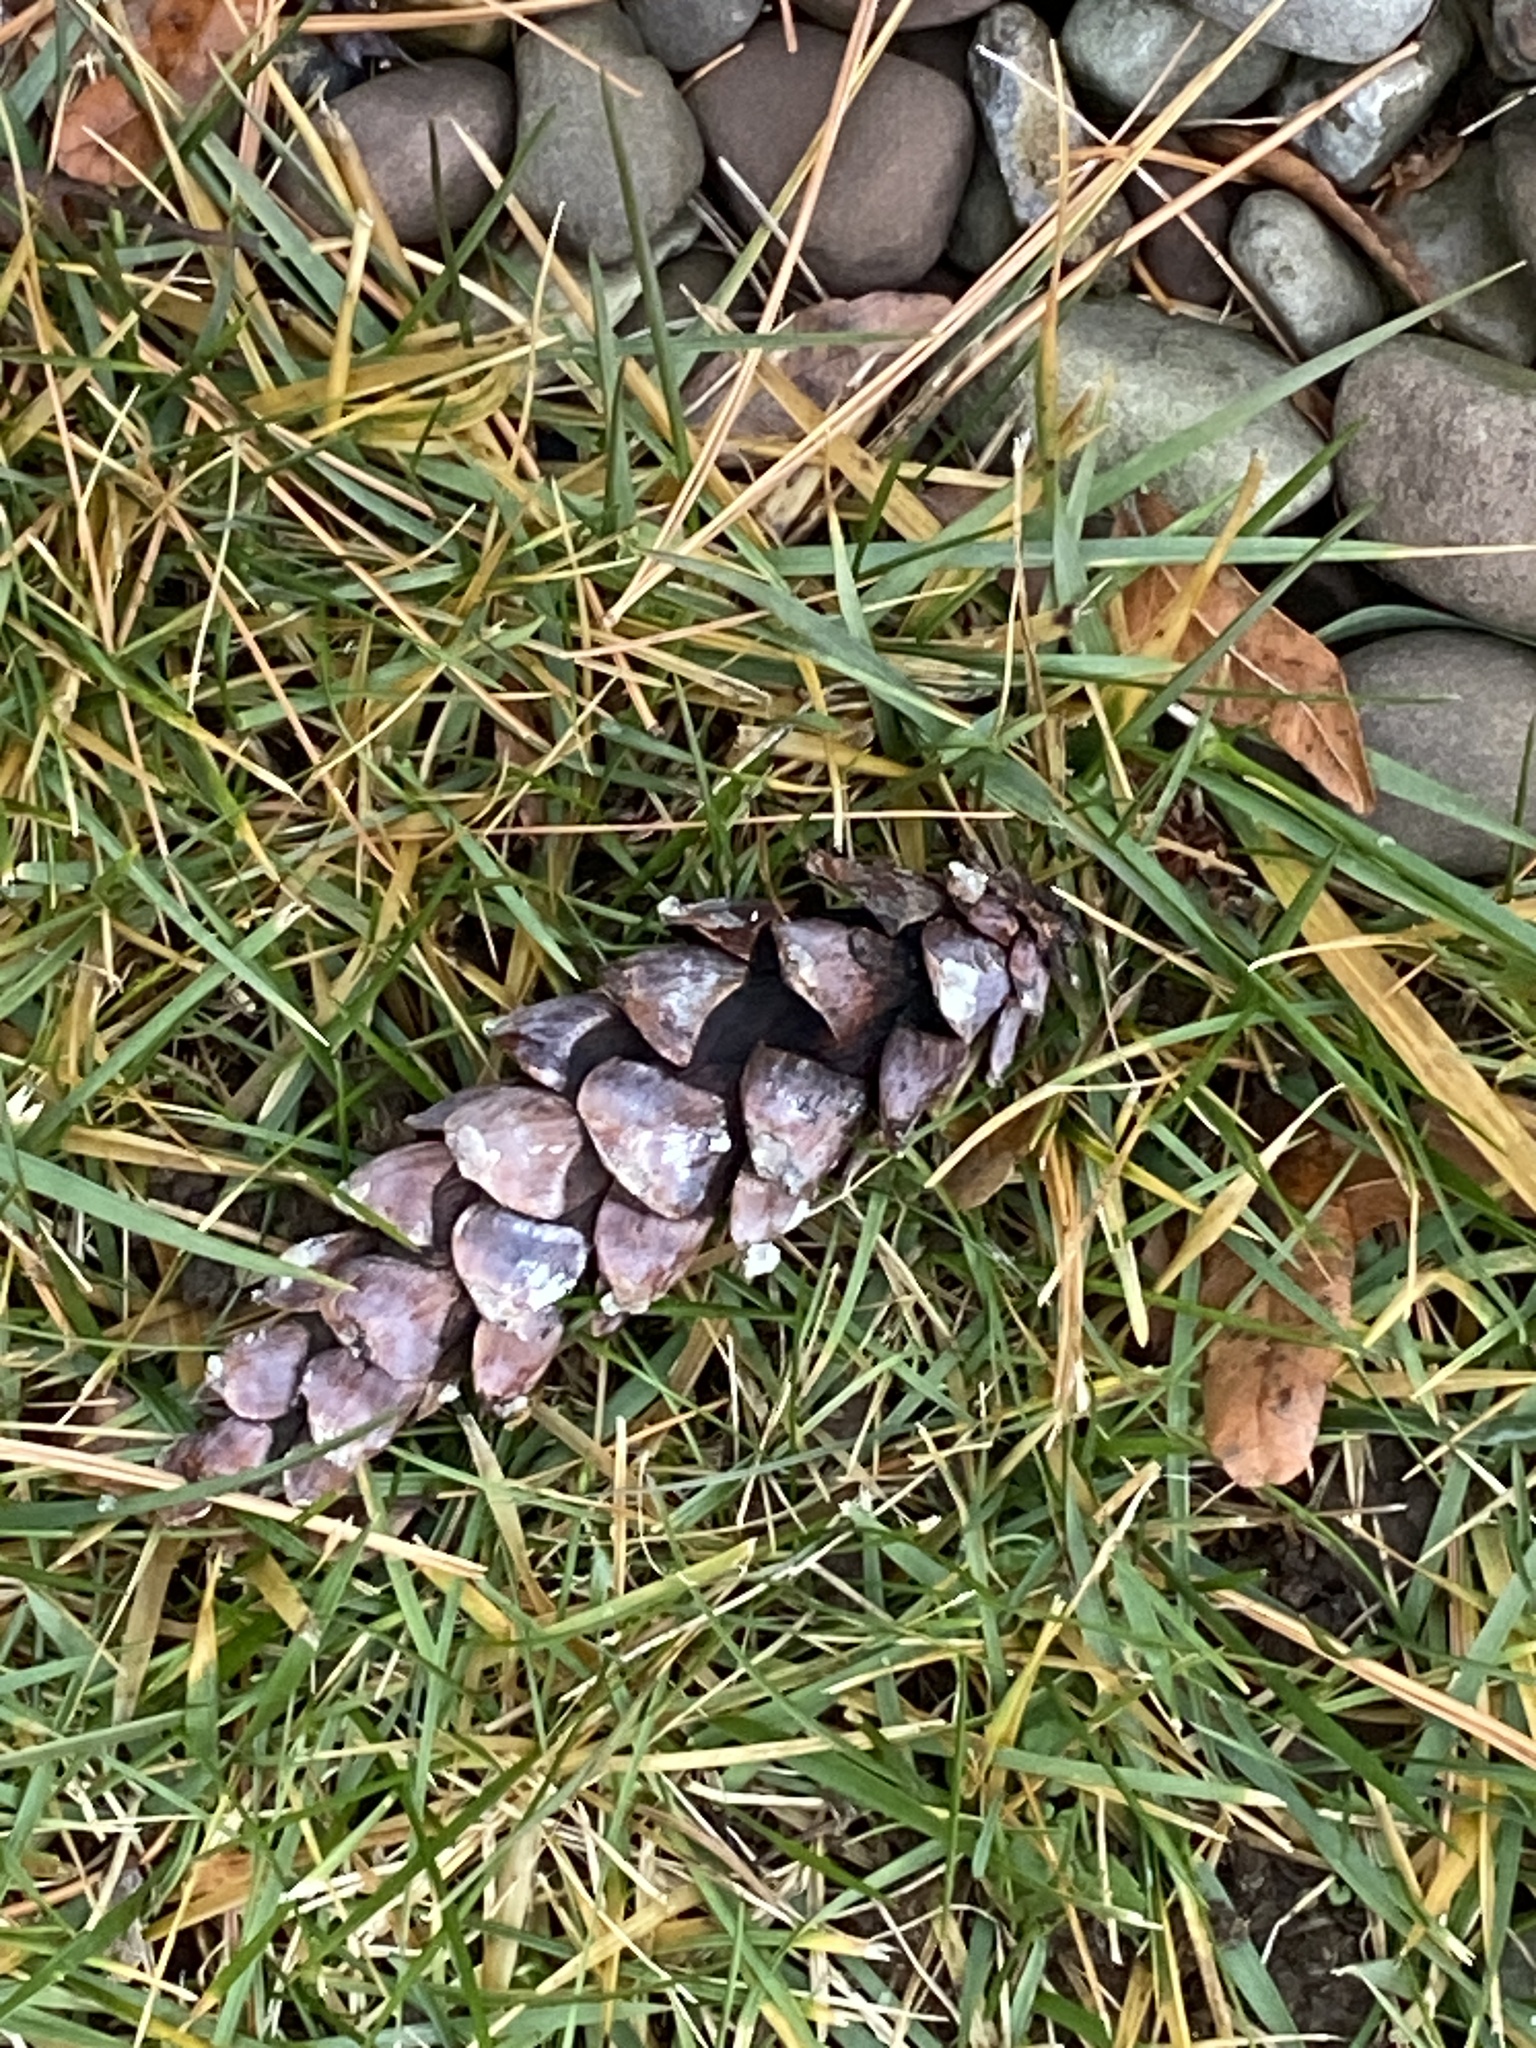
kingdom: Plantae
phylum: Tracheophyta
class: Pinopsida
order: Pinales
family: Pinaceae
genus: Pinus
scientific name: Pinus strobus
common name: Weymouth pine
